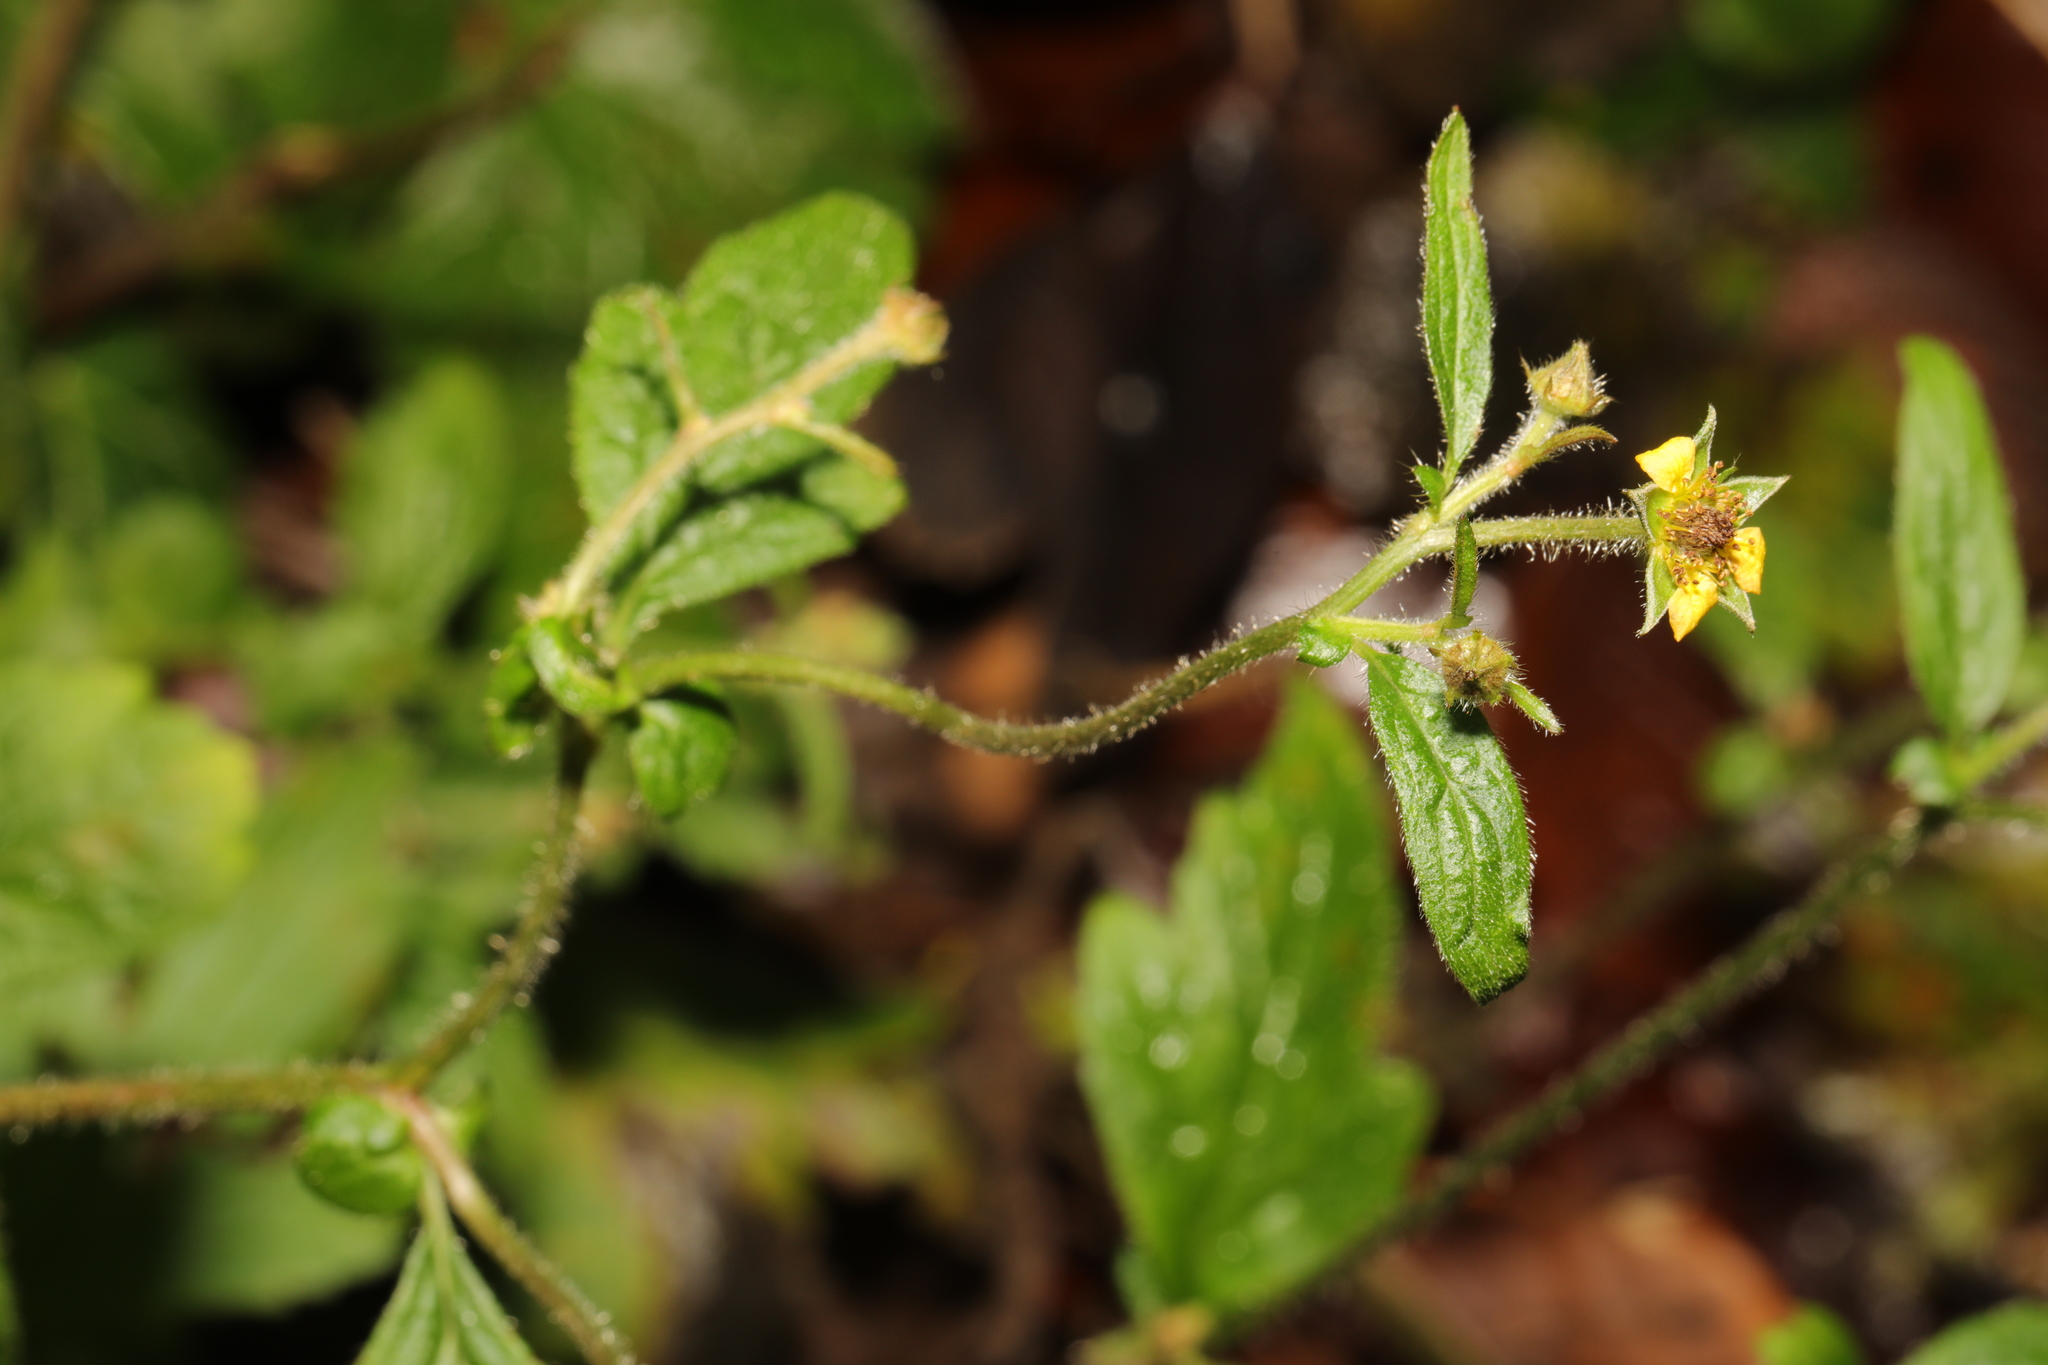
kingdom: Plantae
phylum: Tracheophyta
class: Magnoliopsida
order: Rosales
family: Rosaceae
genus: Geum
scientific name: Geum urbanum
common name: Wood avens
